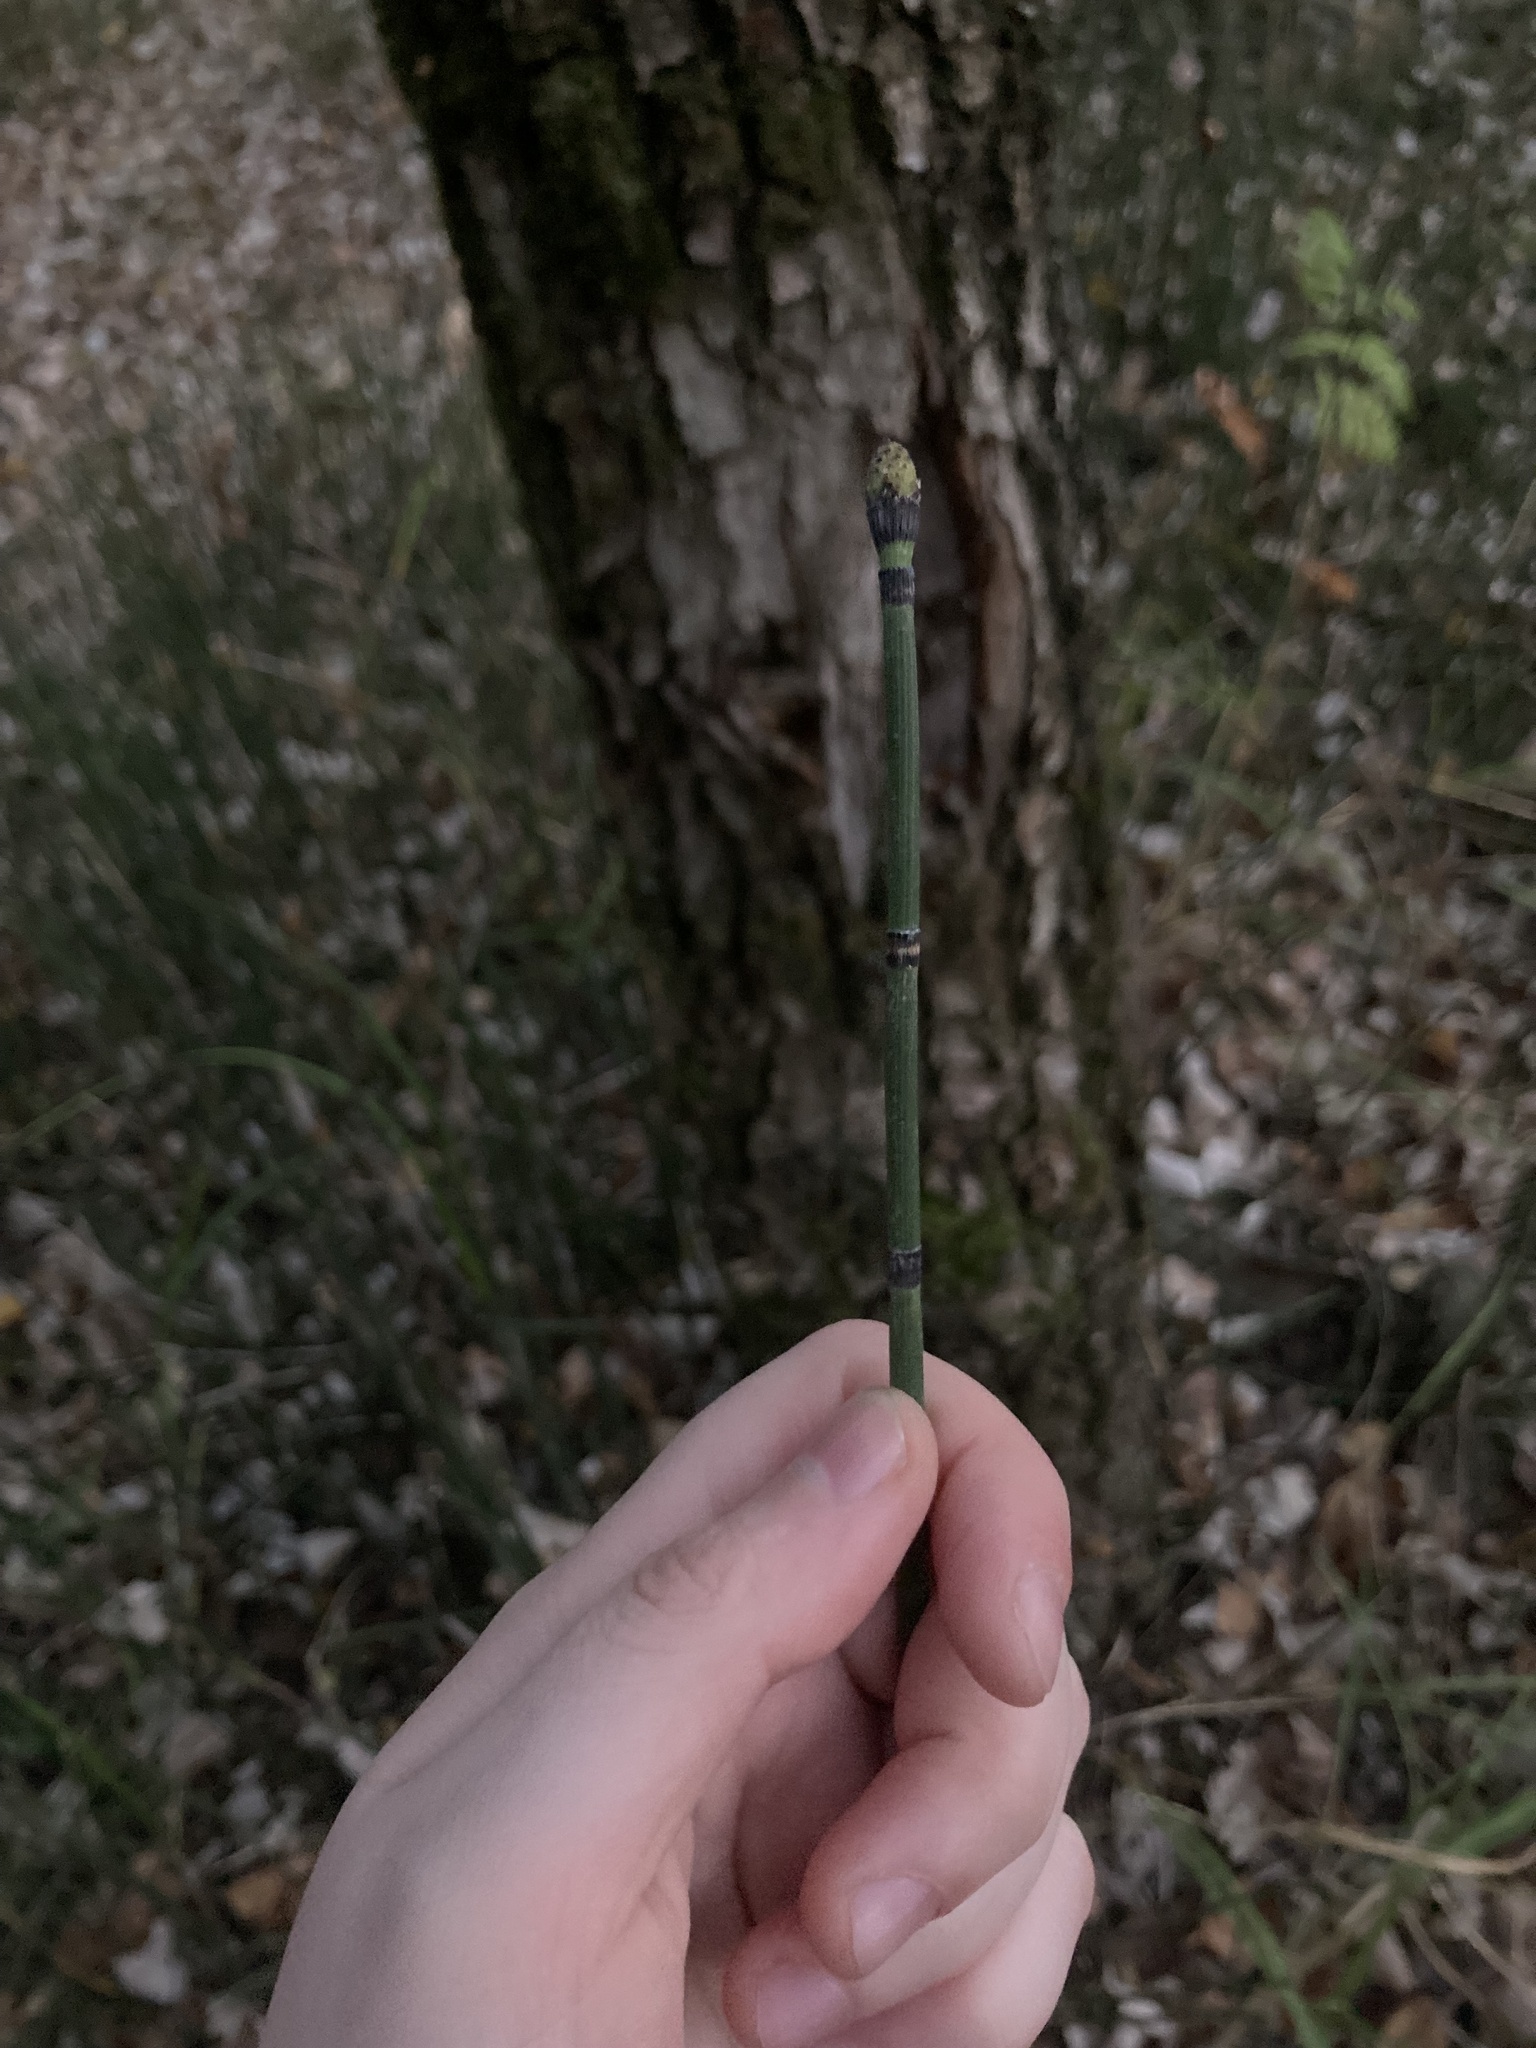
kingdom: Plantae
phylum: Tracheophyta
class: Polypodiopsida
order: Equisetales
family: Equisetaceae
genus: Equisetum
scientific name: Equisetum hyemale
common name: Rough horsetail
